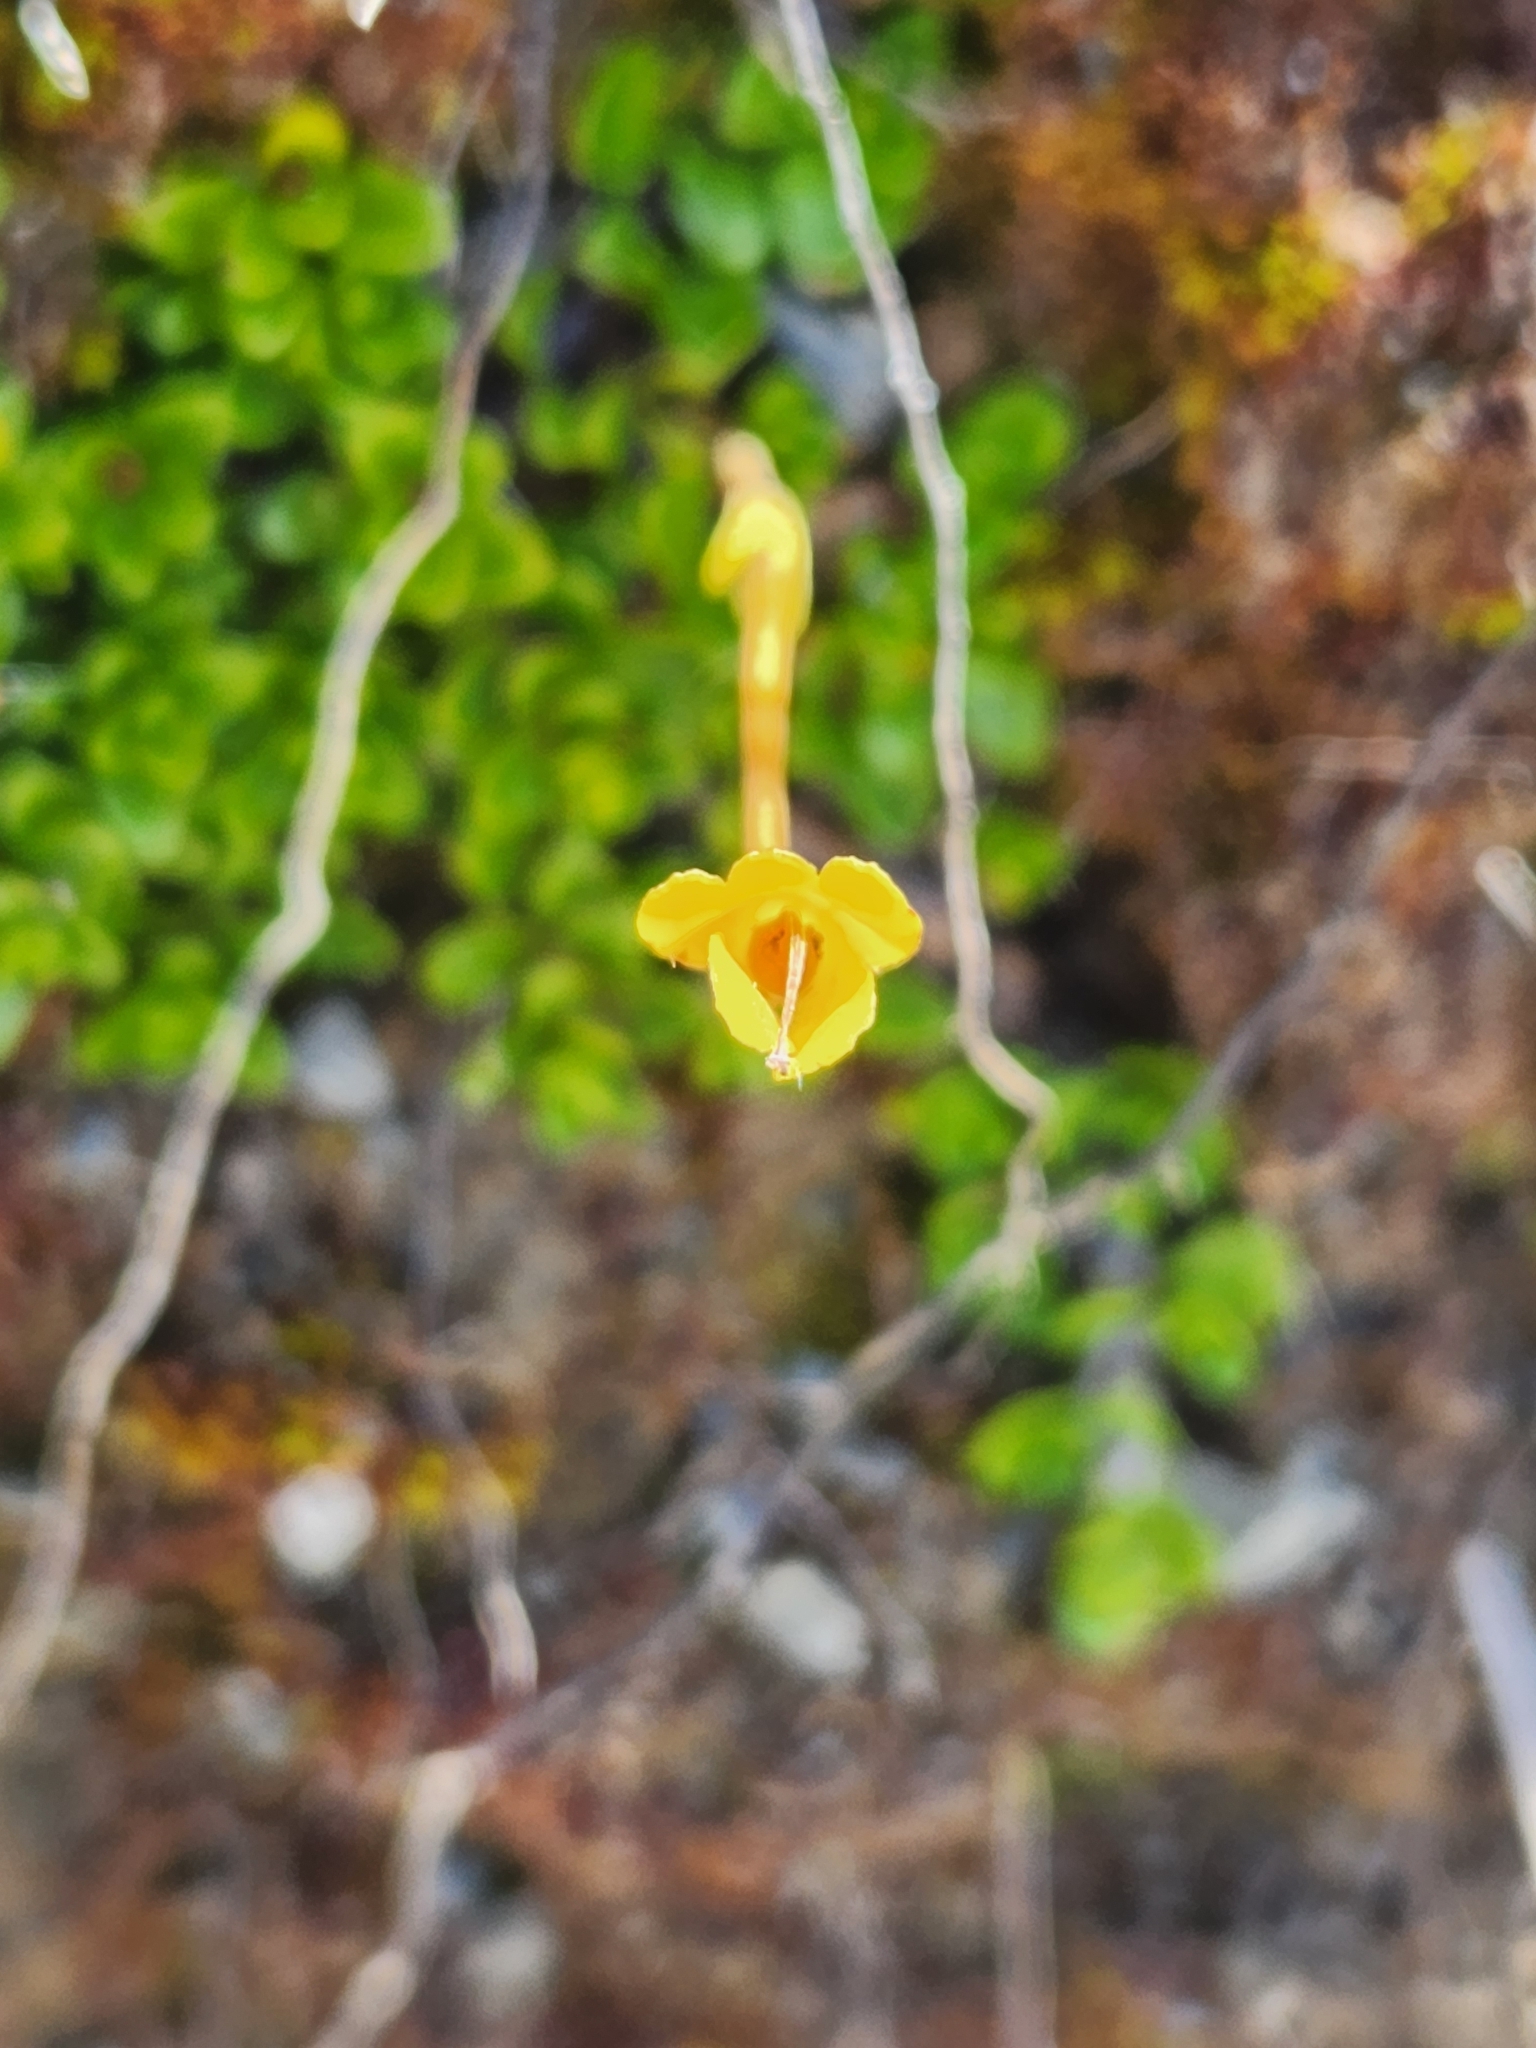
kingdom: Plantae
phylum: Tracheophyta
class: Magnoliopsida
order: Gentianales
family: Rubiaceae
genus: Coprosma
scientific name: Coprosma perpusilla
